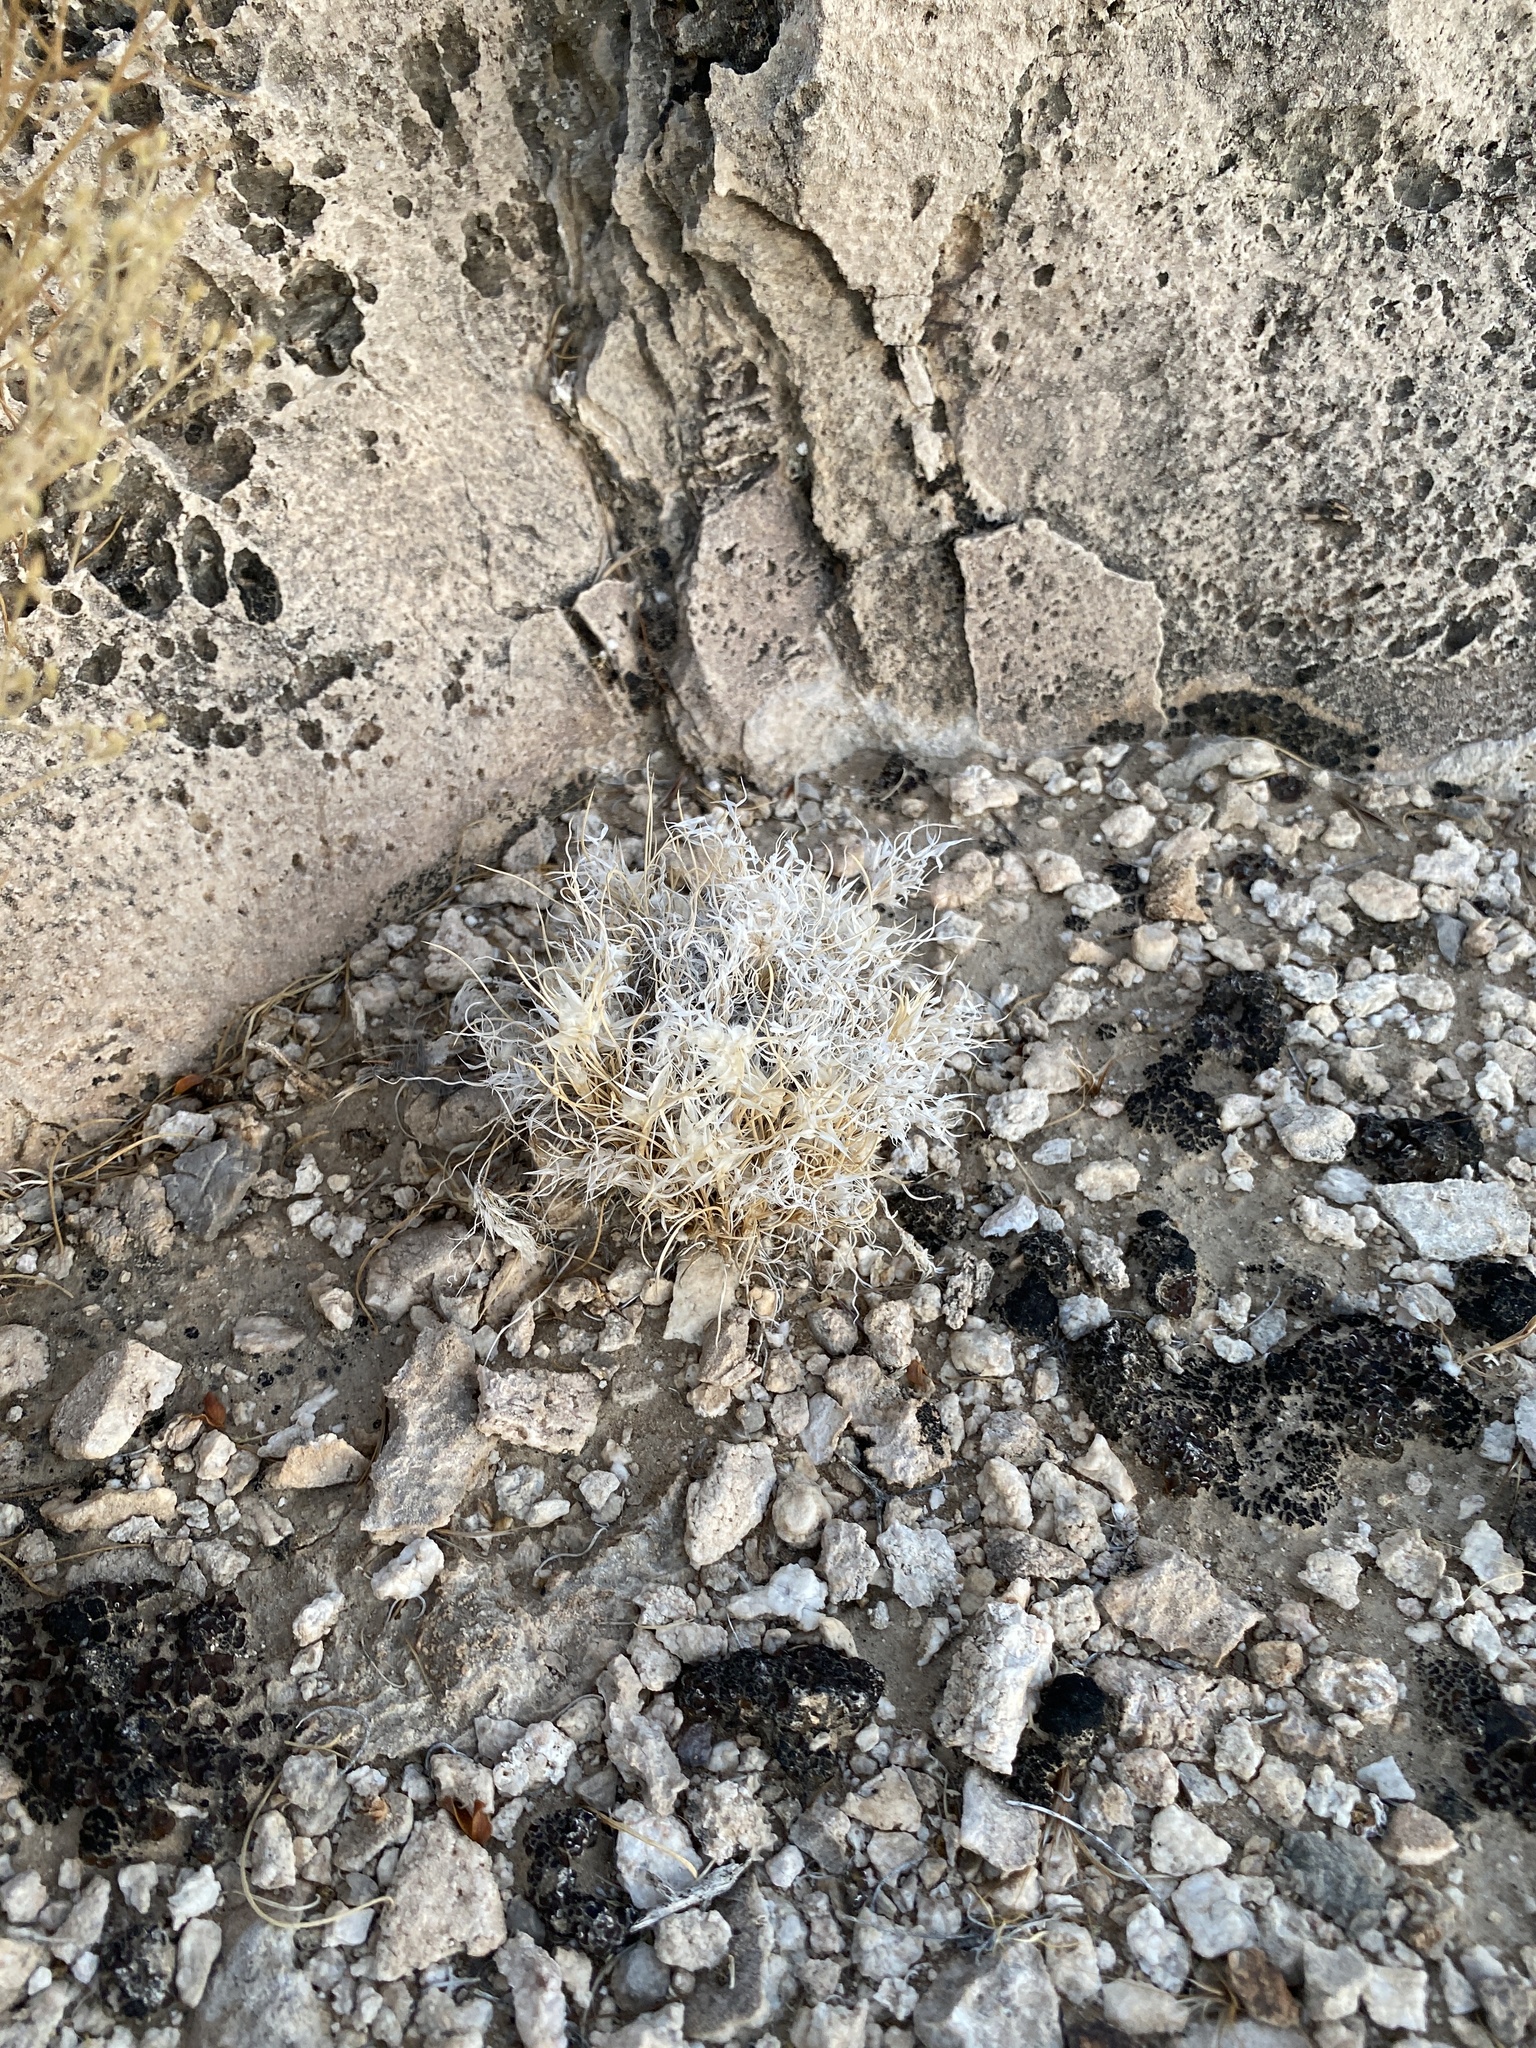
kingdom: Plantae
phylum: Tracheophyta
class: Liliopsida
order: Poales
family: Poaceae
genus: Dasyochloa
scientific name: Dasyochloa pulchella
